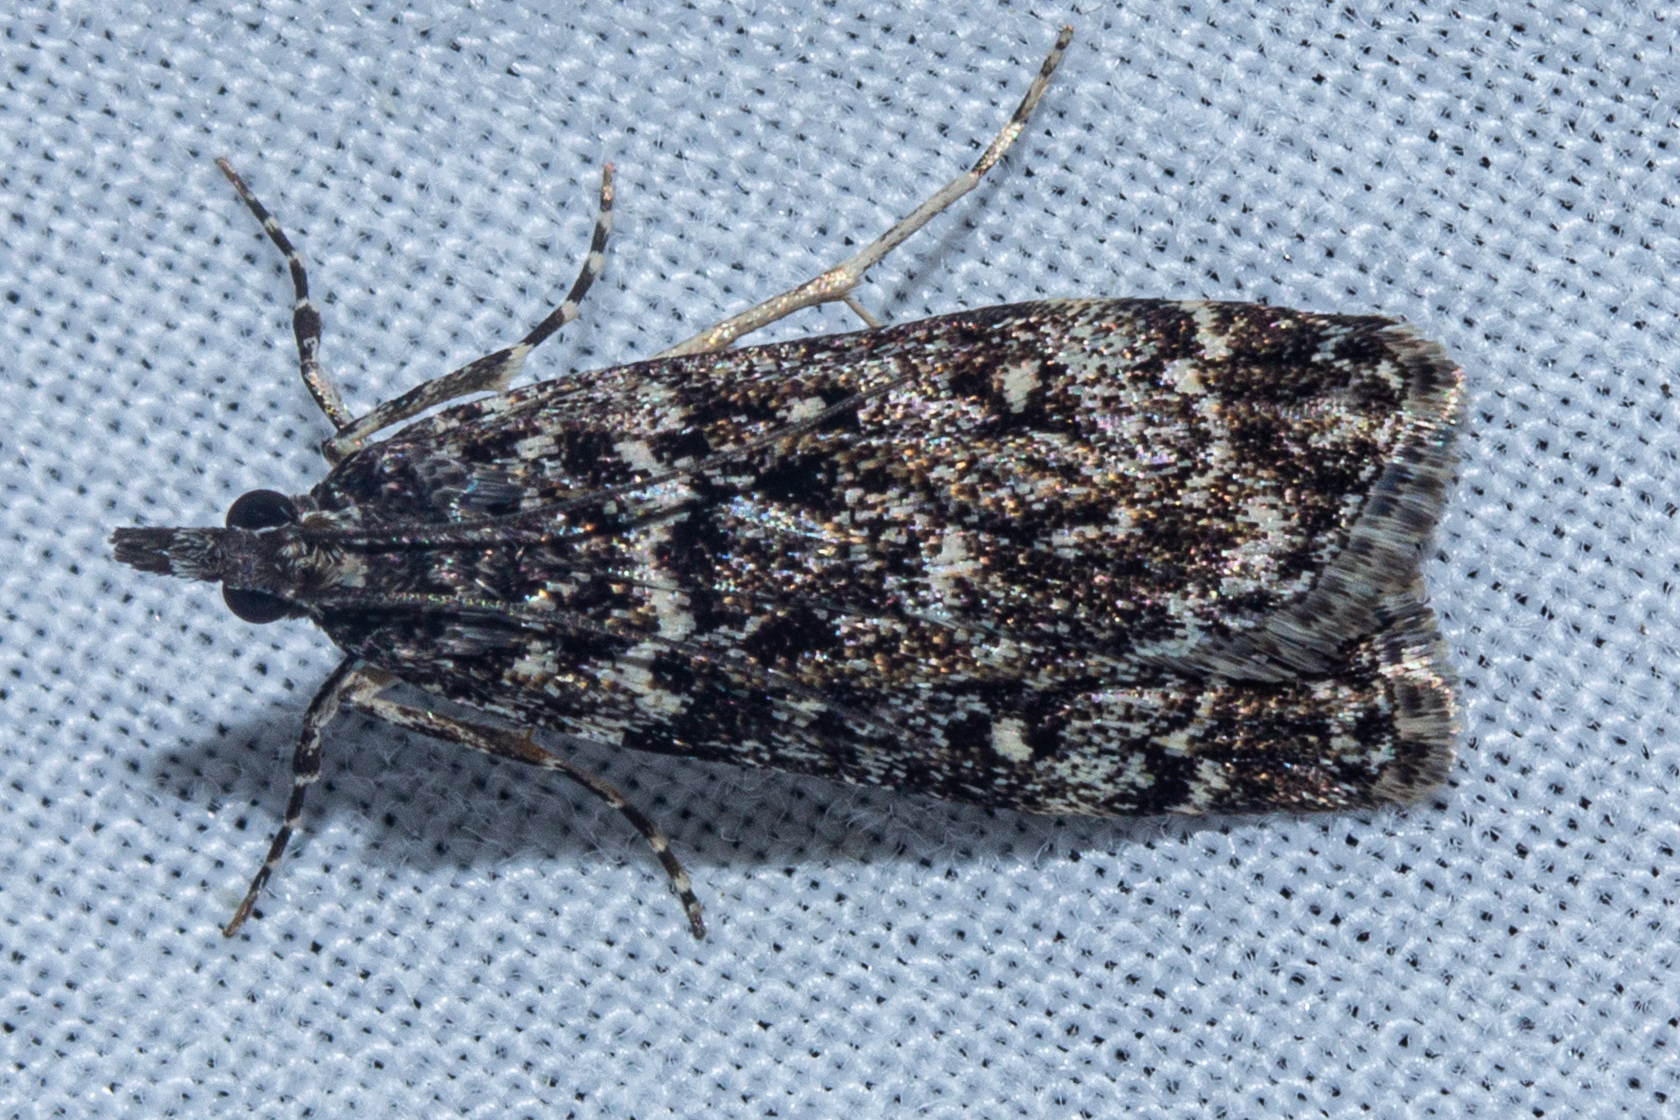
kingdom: Animalia
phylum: Arthropoda
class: Insecta
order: Lepidoptera
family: Crambidae
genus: Eudonia
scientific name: Eudonia philerga
